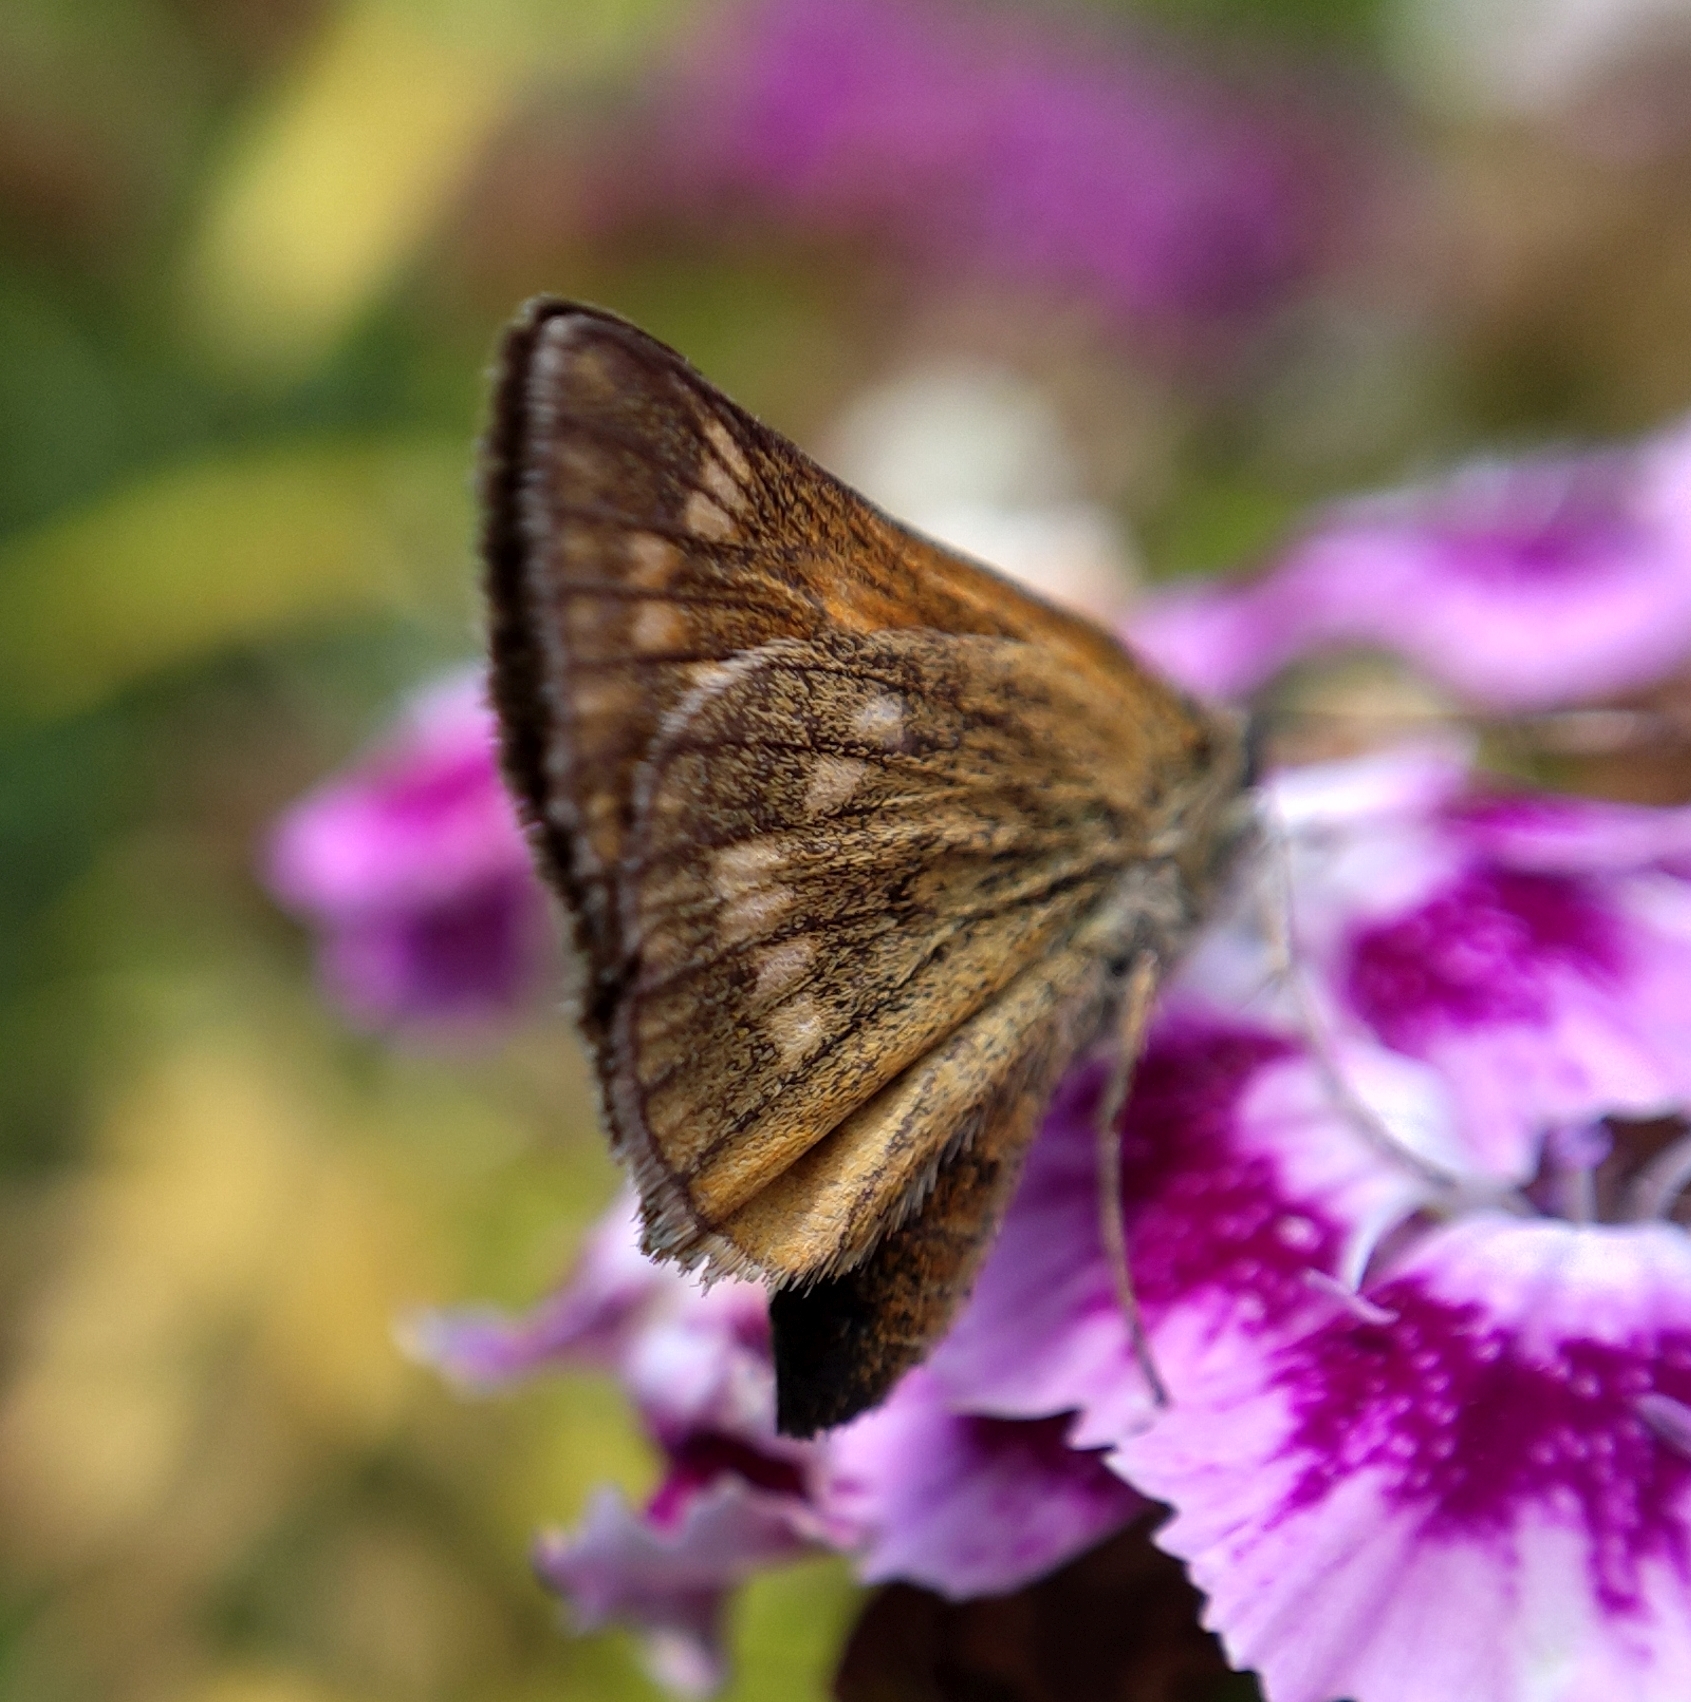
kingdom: Animalia
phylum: Arthropoda
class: Insecta
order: Lepidoptera
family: Hesperiidae
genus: Ochlodes
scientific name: Ochlodes venata
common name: Large skipper
